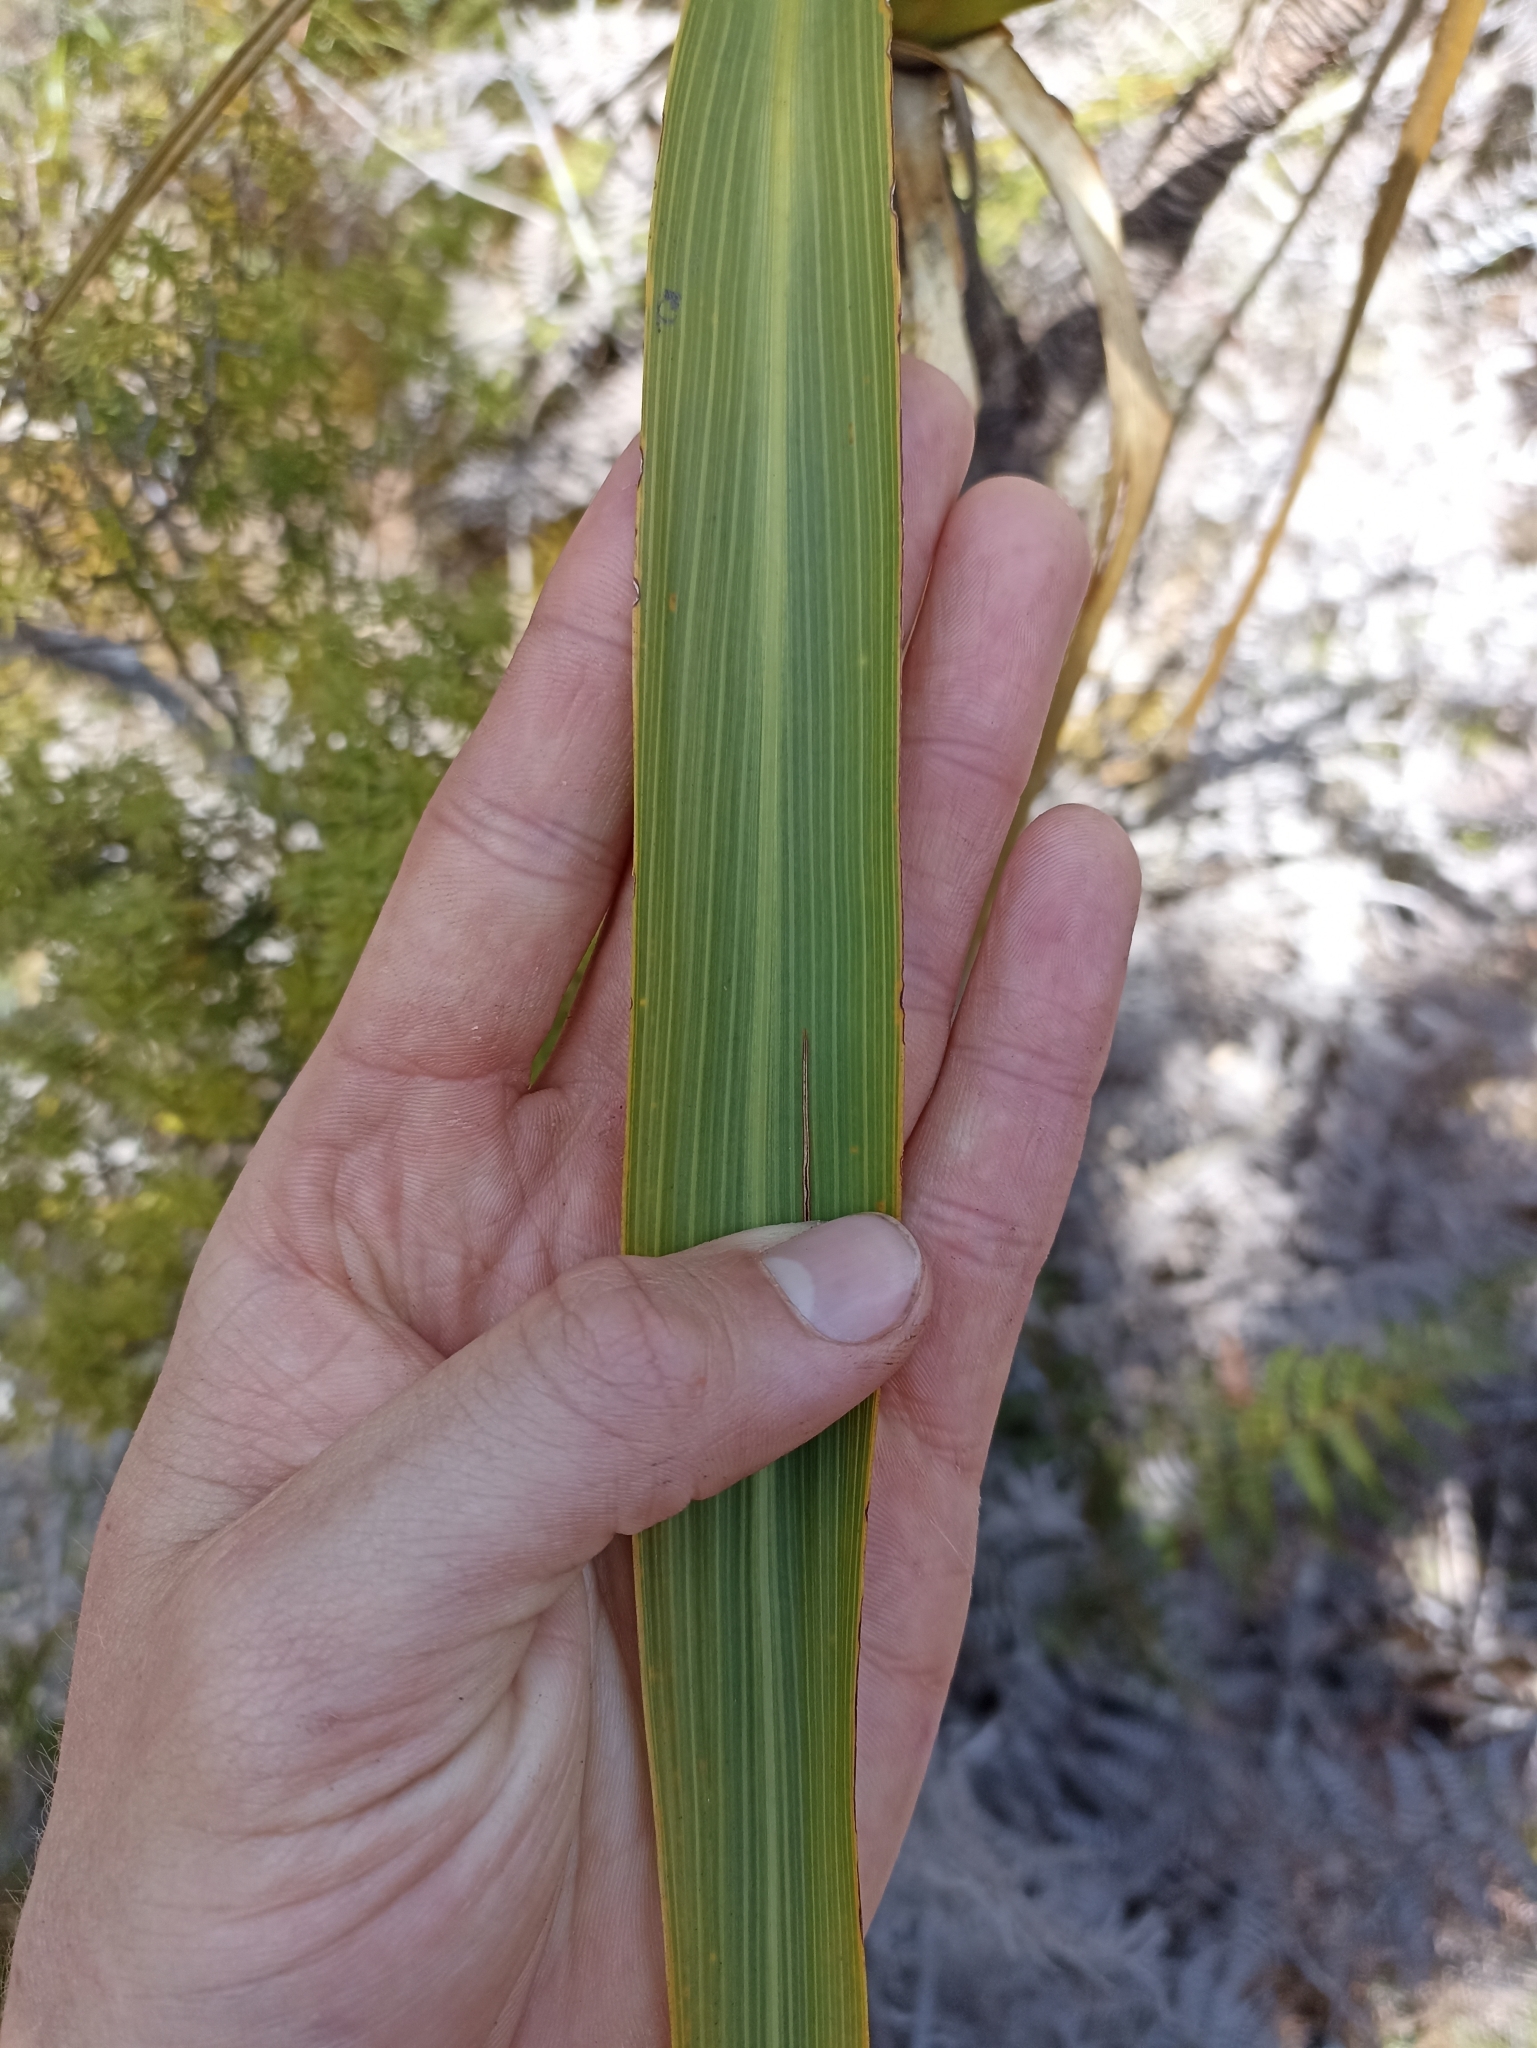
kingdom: Plantae
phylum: Tracheophyta
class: Liliopsida
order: Asparagales
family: Asparagaceae
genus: Cordyline
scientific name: Cordyline banksii
